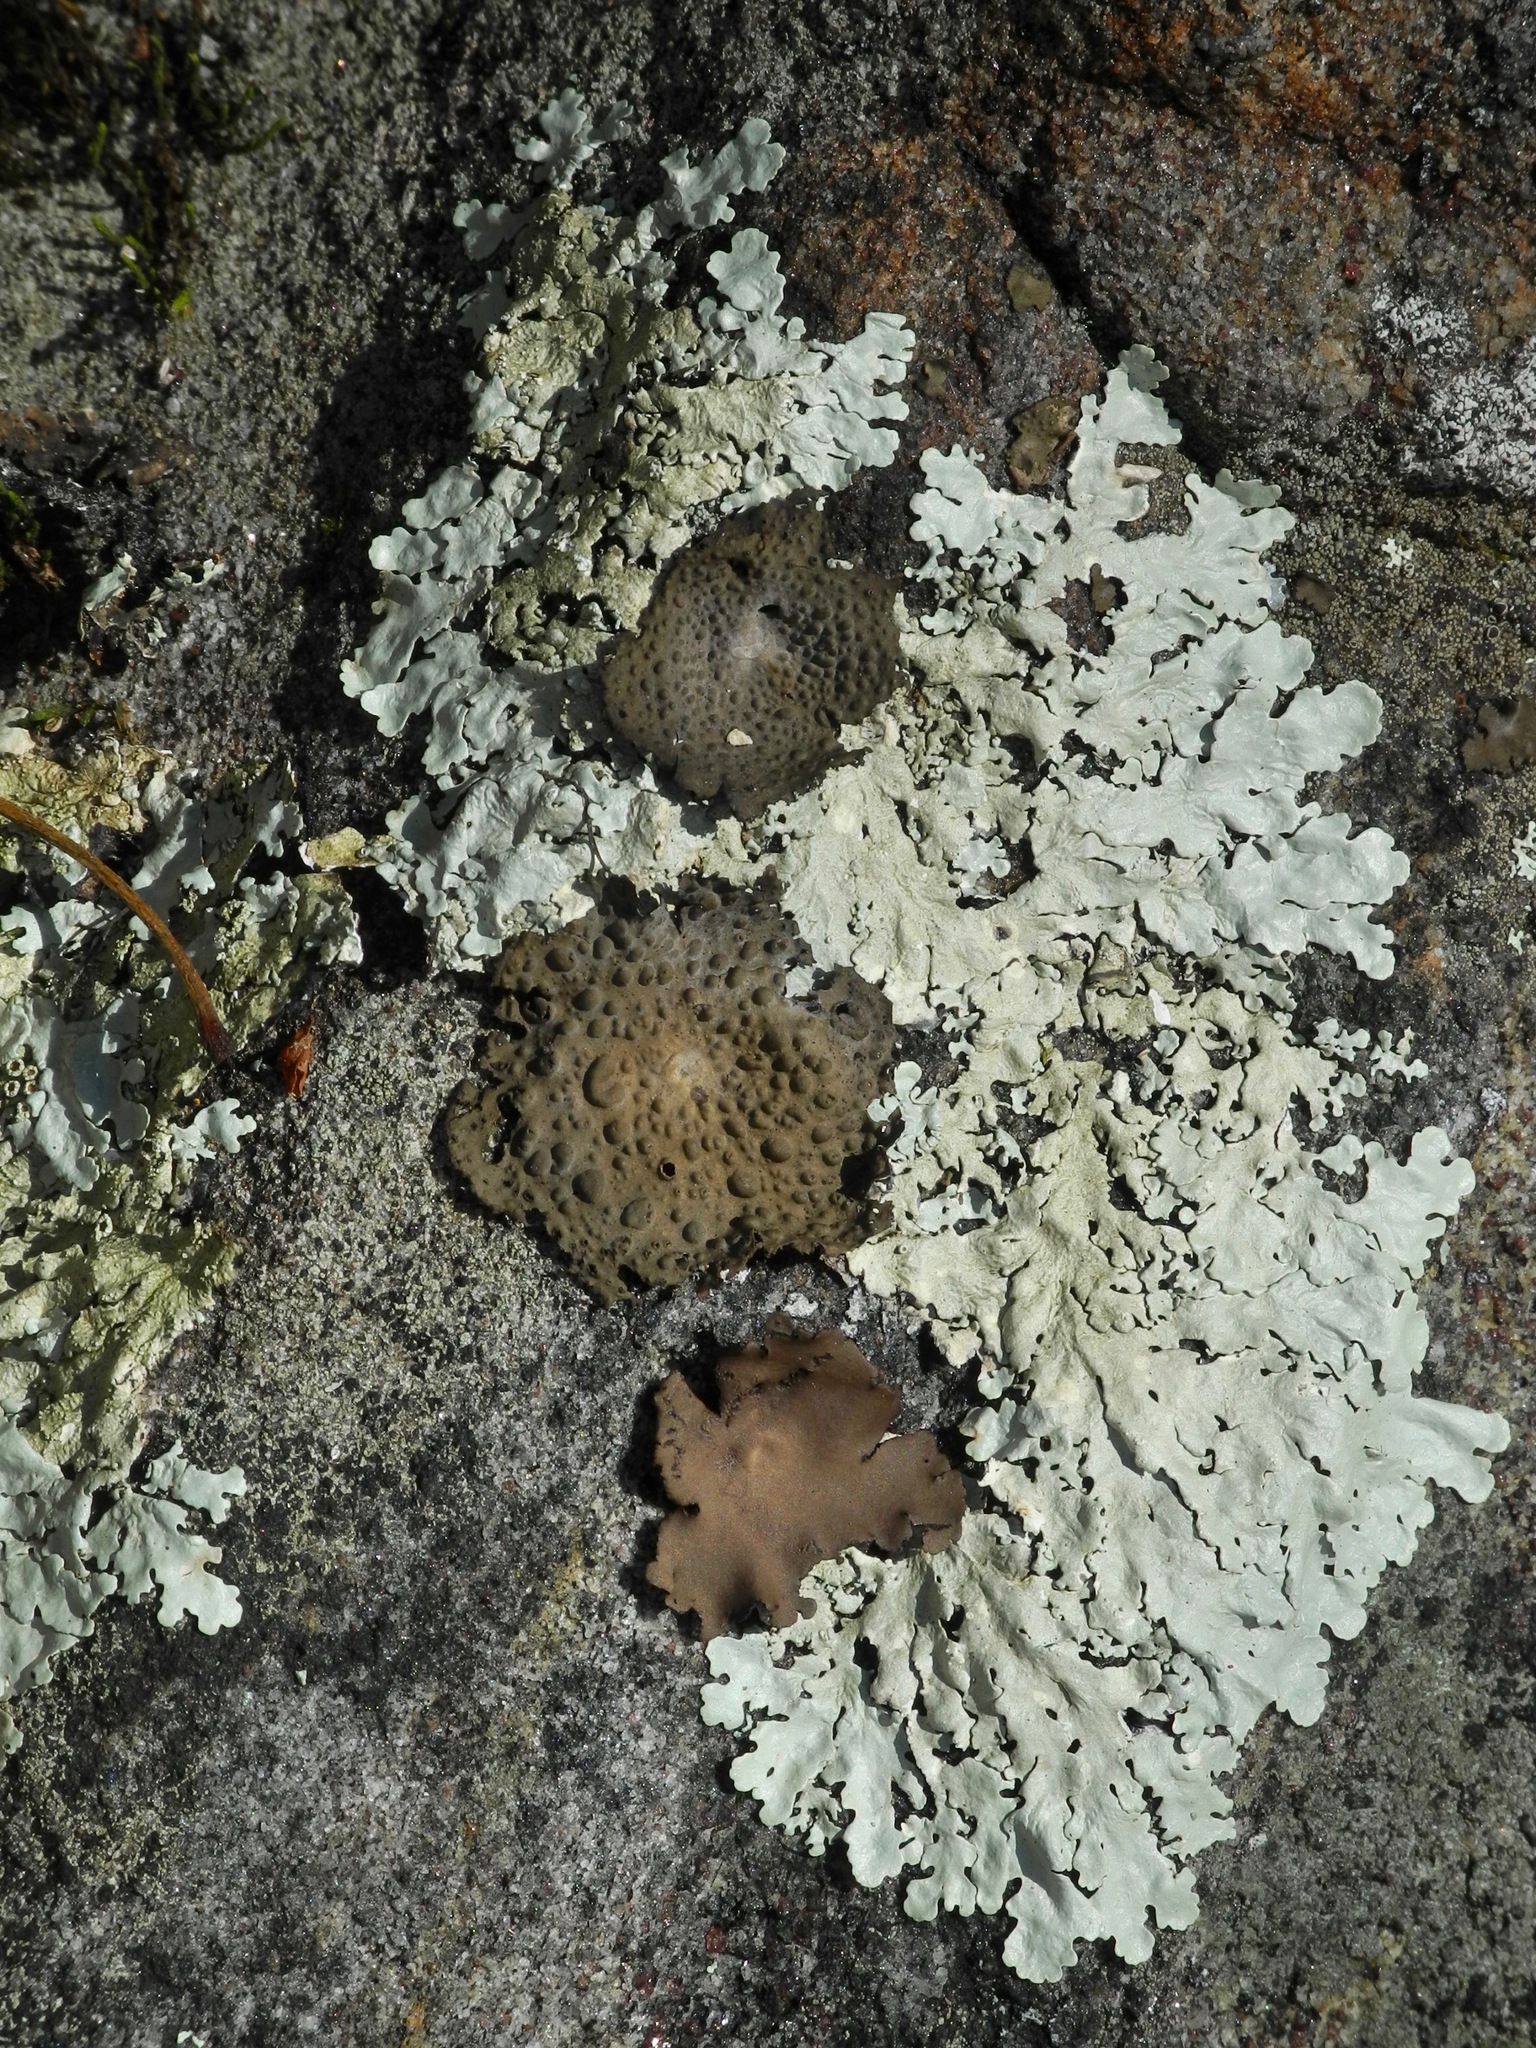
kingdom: Fungi
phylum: Ascomycota
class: Lecanoromycetes
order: Umbilicariales
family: Umbilicariaceae
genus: Lasallia
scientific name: Lasallia papulosa
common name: Common toadskin lichen
